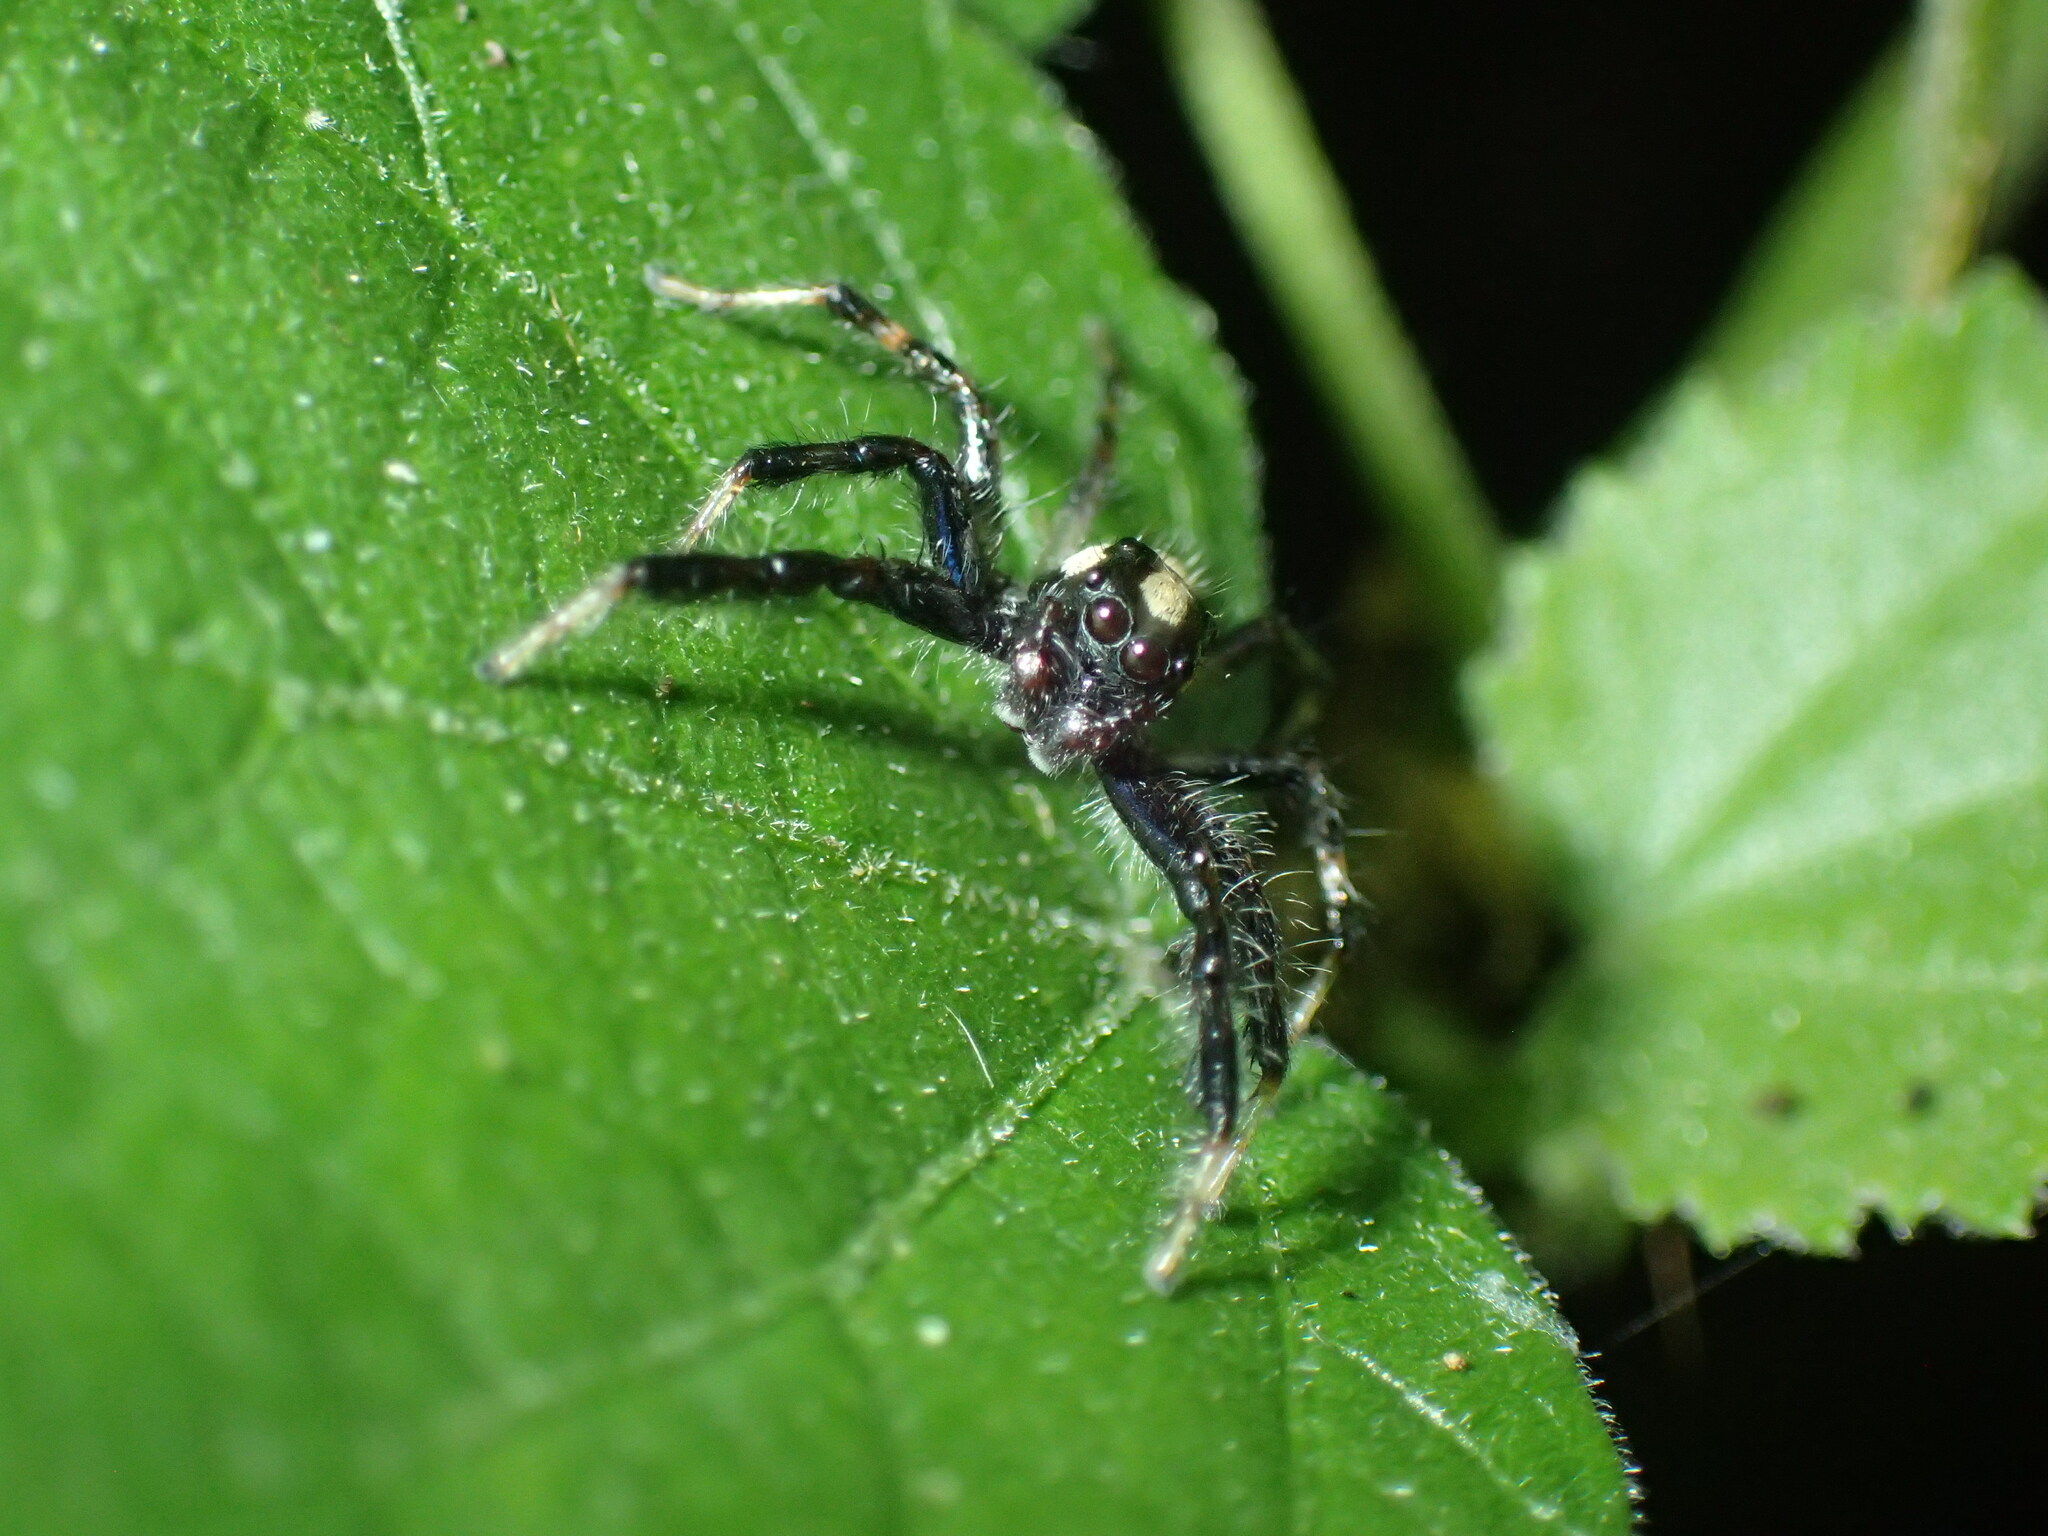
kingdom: Animalia
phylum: Arthropoda
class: Arachnida
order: Araneae
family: Salticidae
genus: Brancus
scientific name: Brancus mustelus
